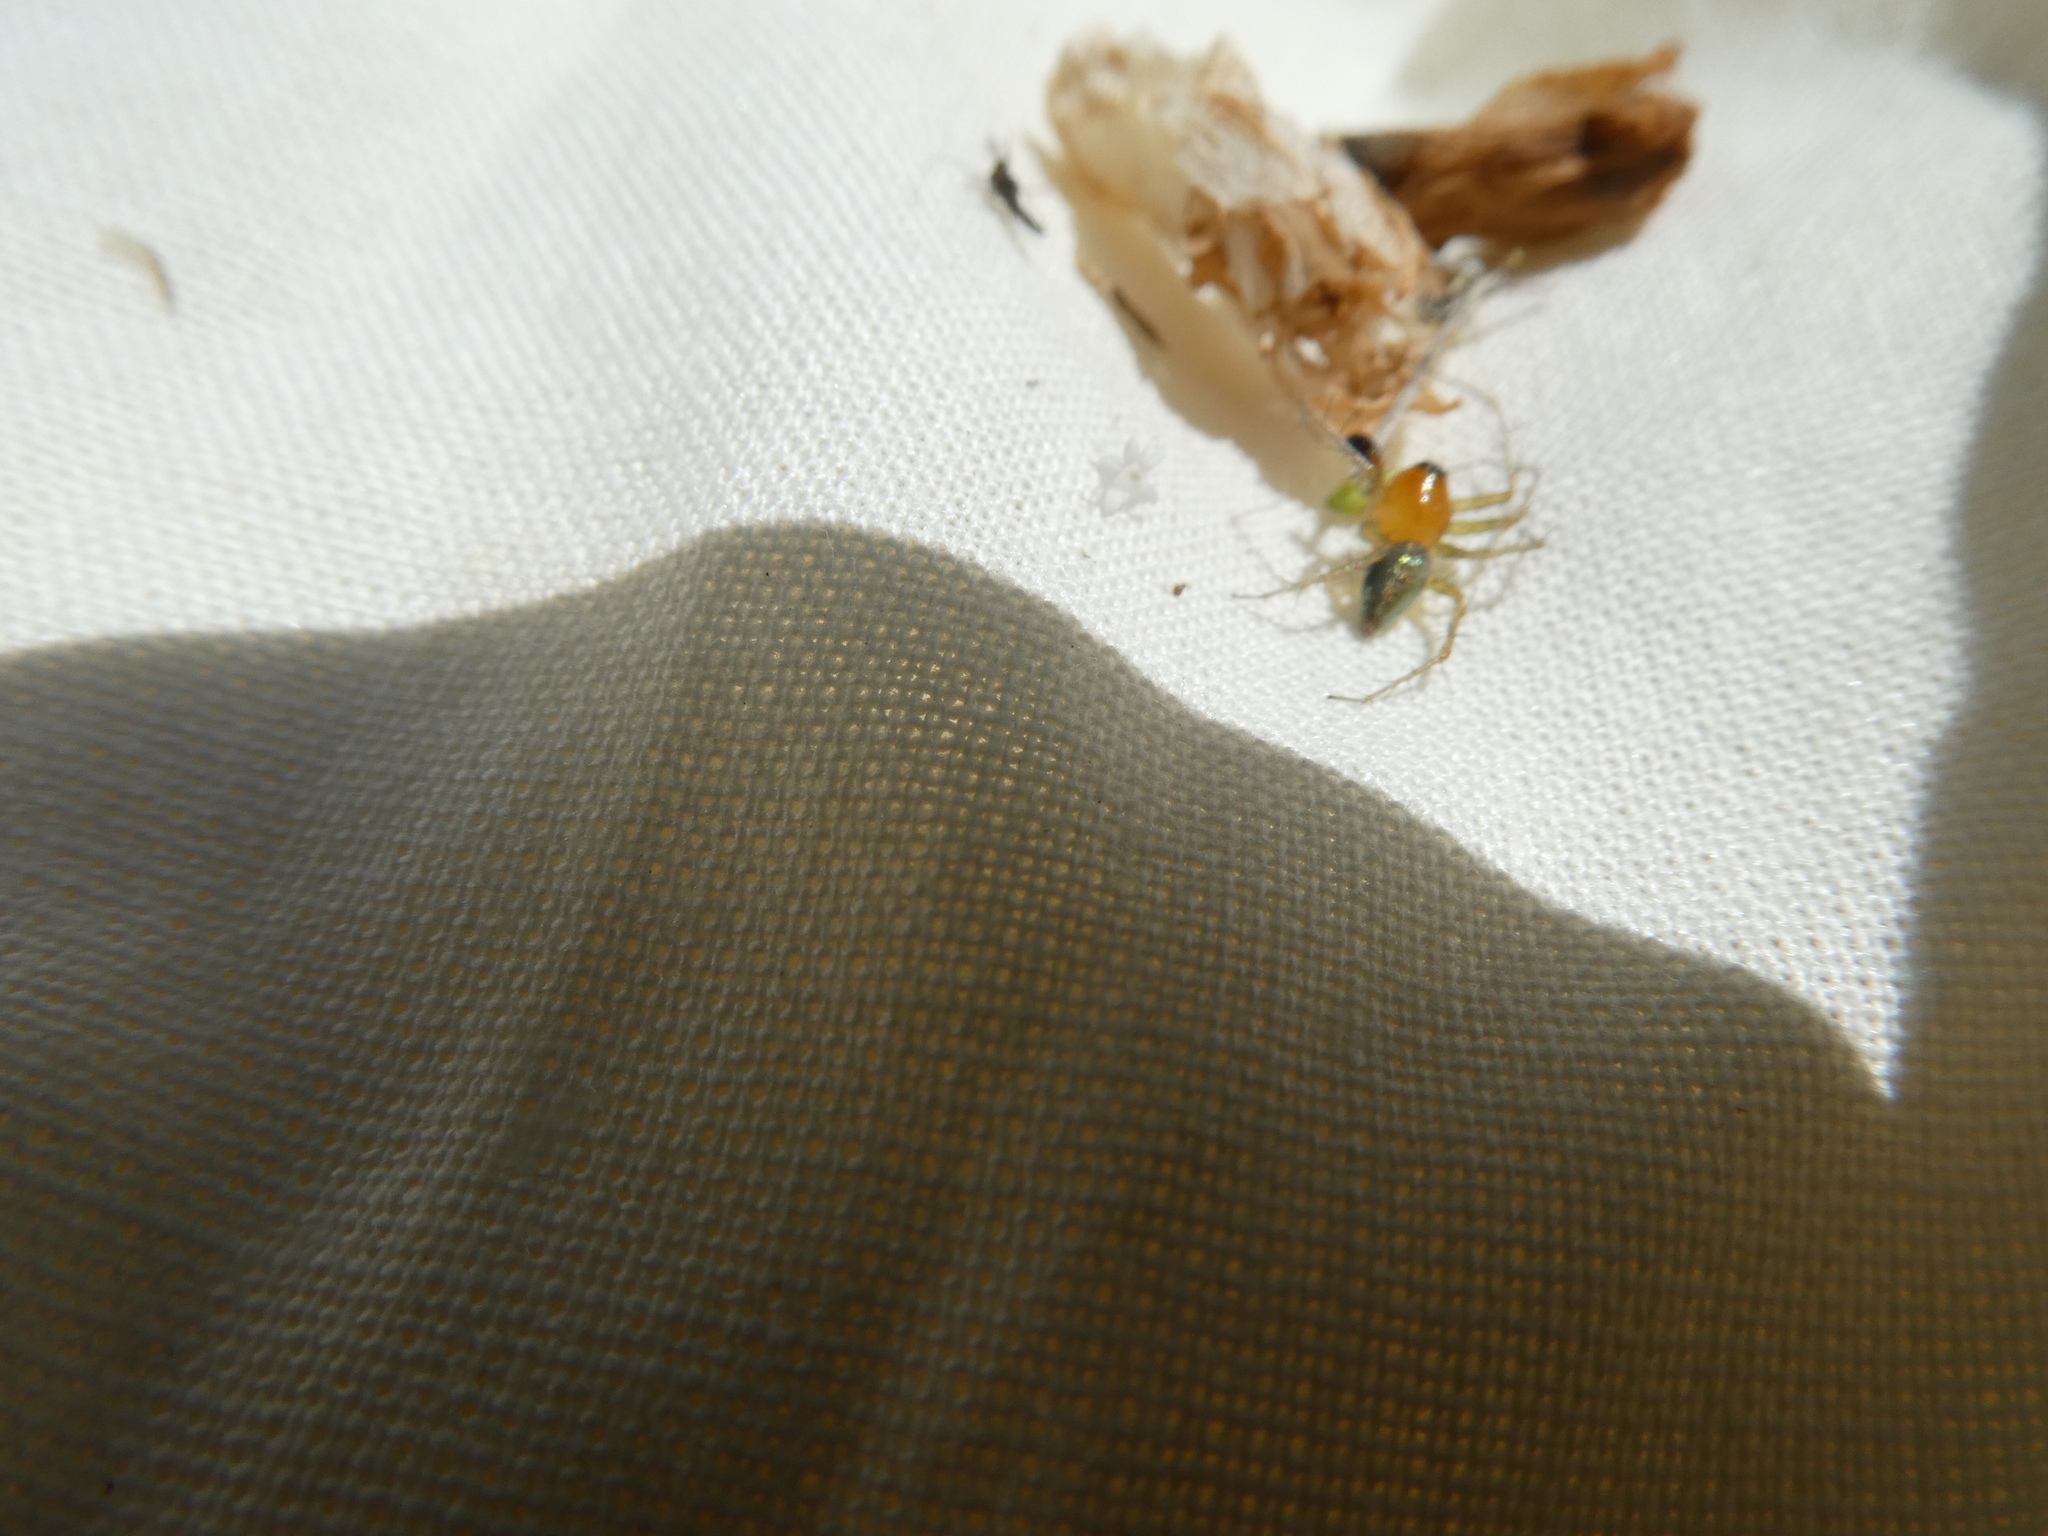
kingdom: Animalia
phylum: Arthropoda
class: Arachnida
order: Araneae
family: Oxyopidae
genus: Oxyopes
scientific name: Oxyopes salticus
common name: Lynx spiders
